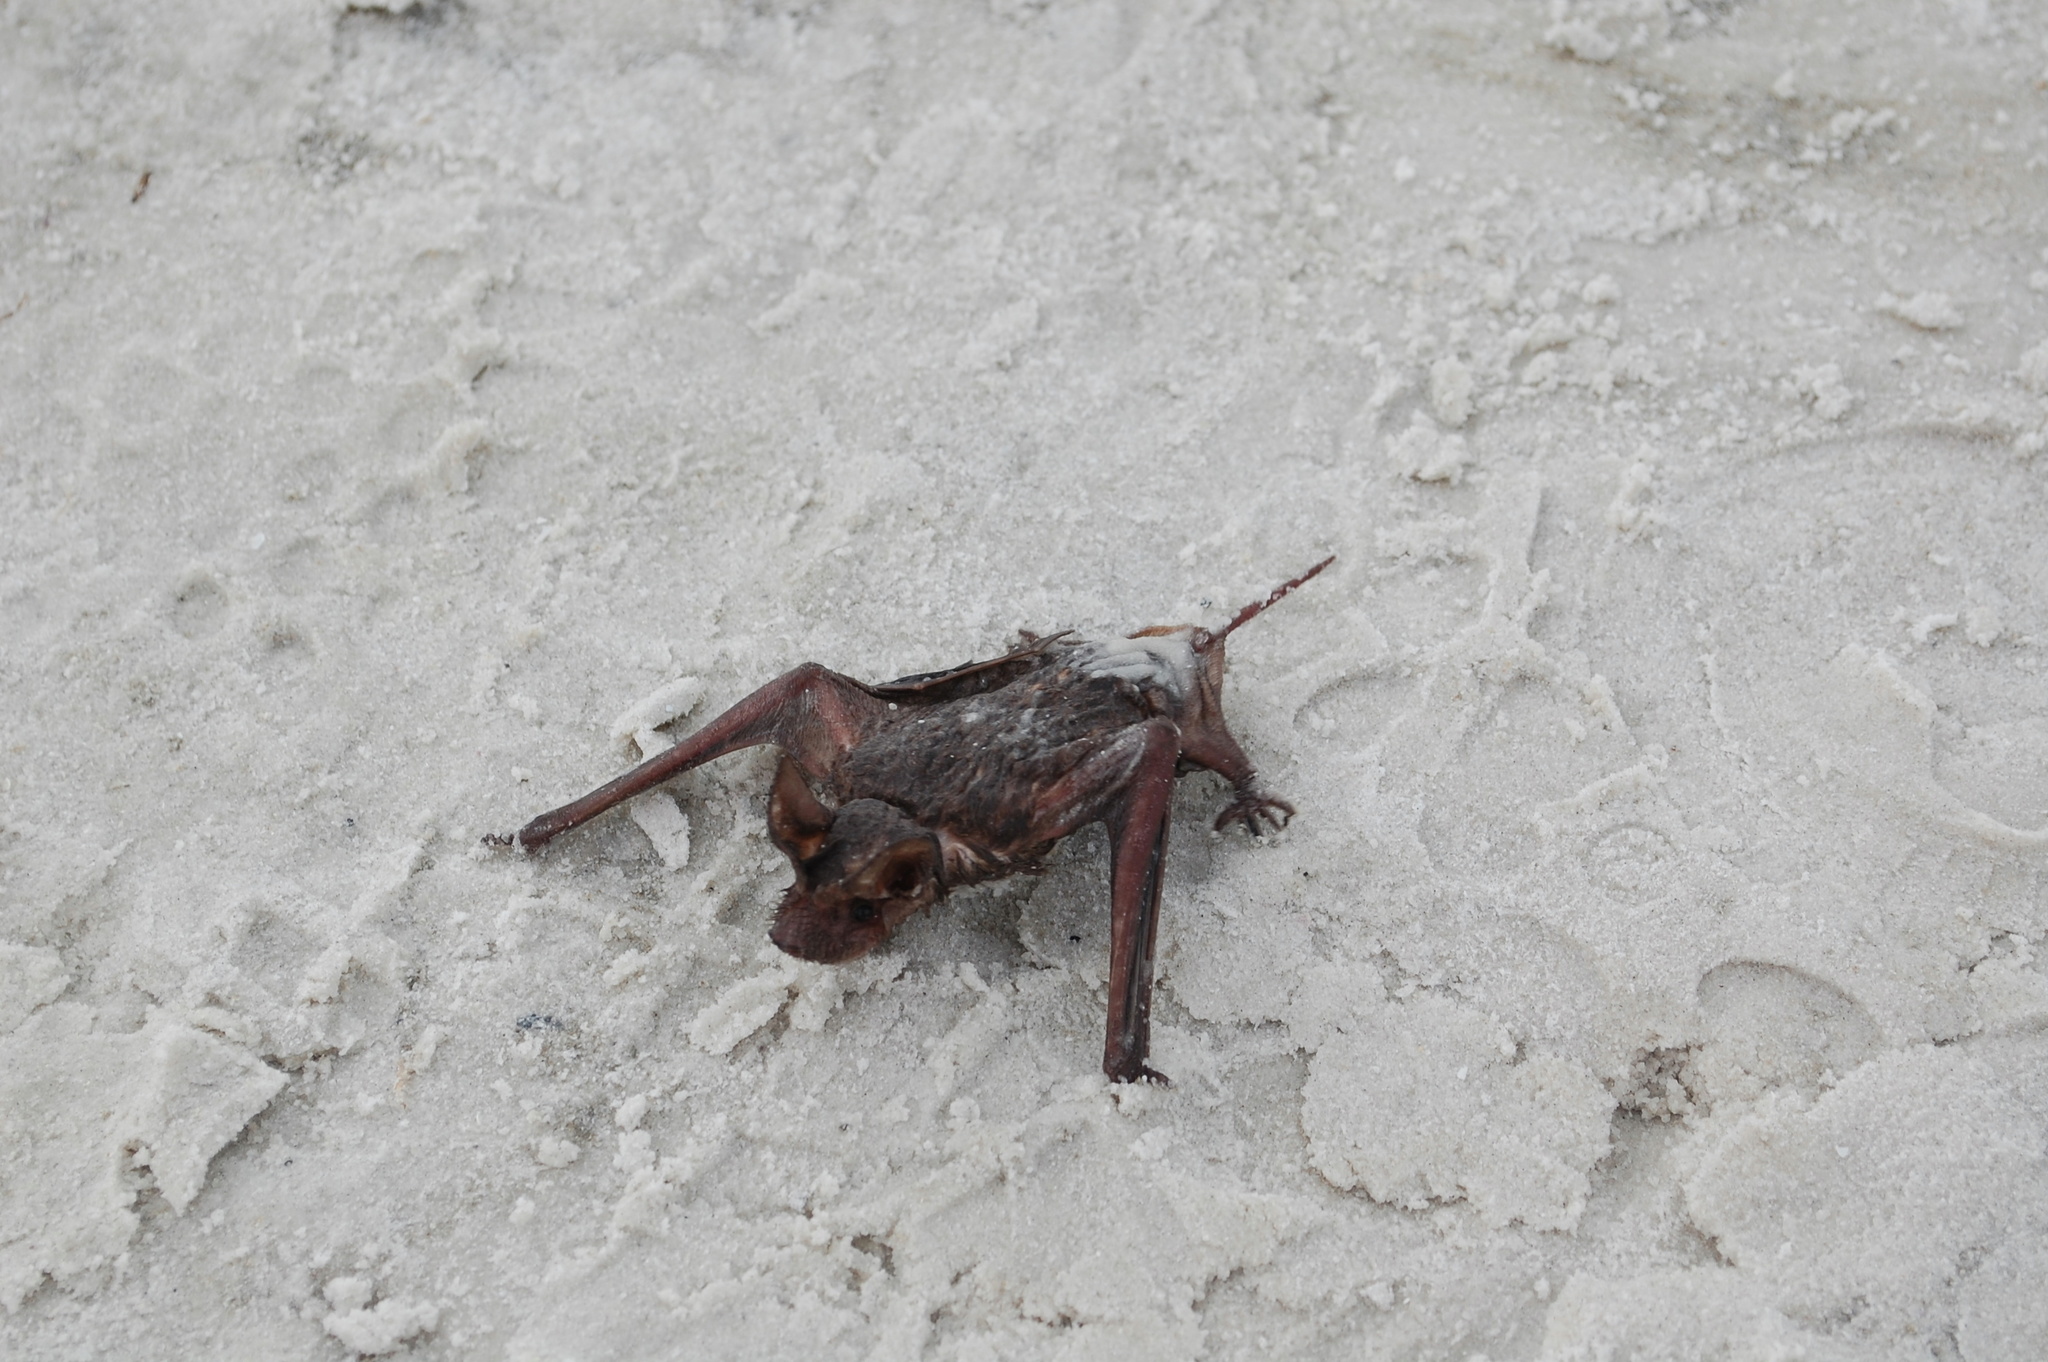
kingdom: Animalia
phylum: Chordata
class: Mammalia
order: Chiroptera
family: Molossidae
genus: Tadarida
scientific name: Tadarida brasiliensis
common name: Mexican free-tailed bat
